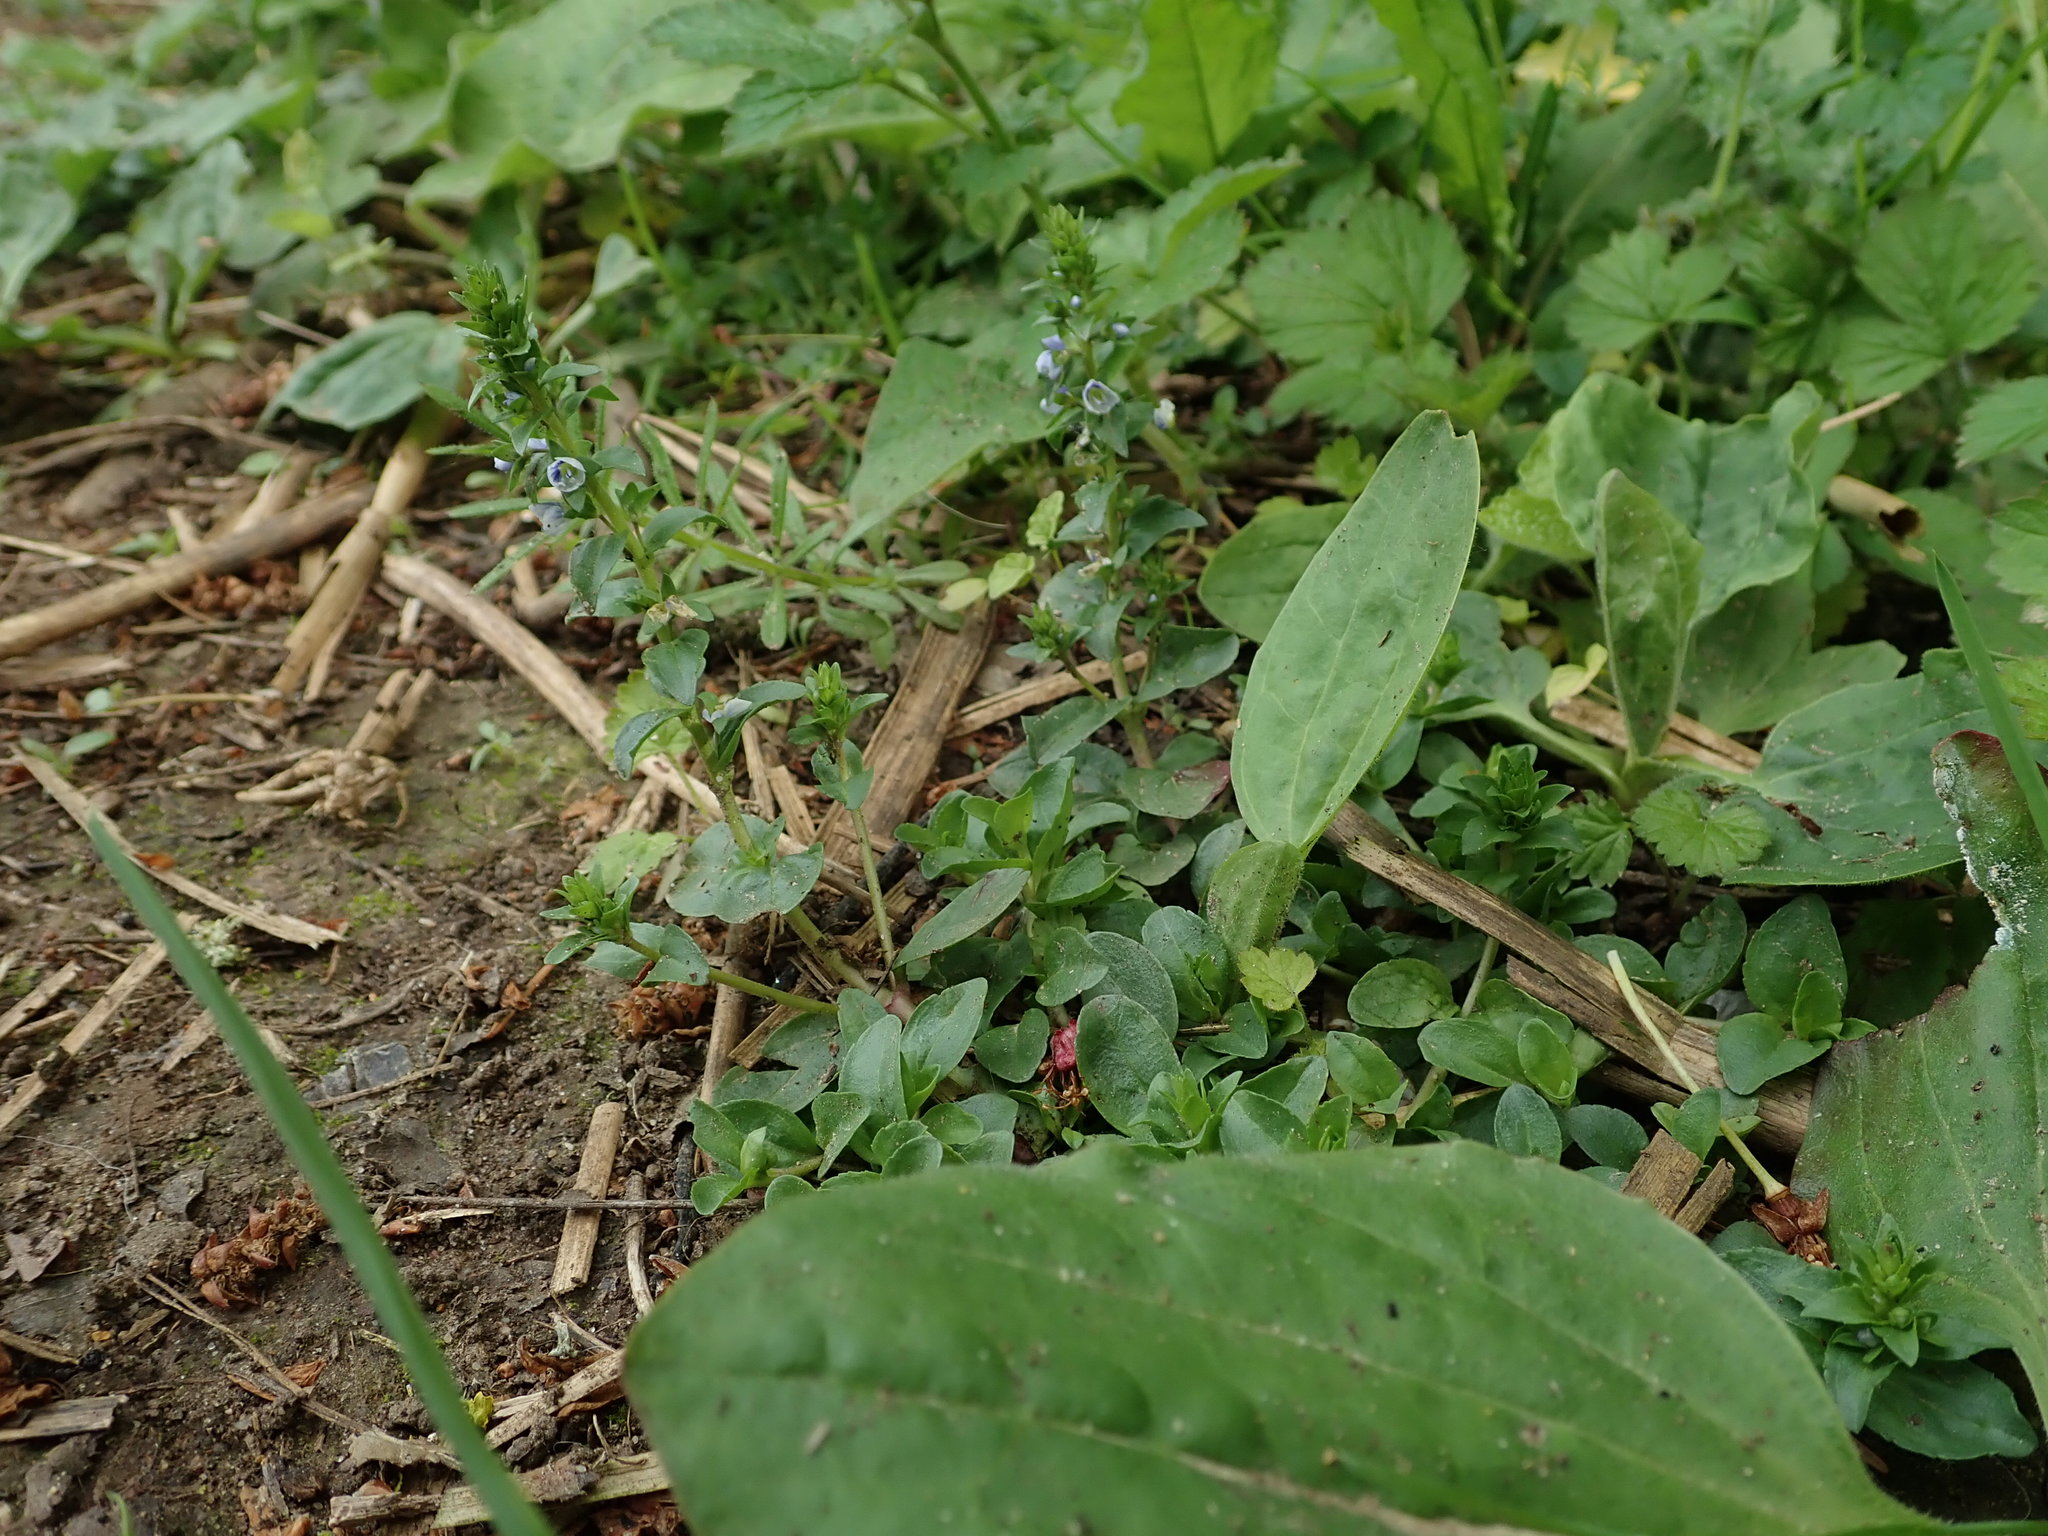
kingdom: Plantae
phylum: Tracheophyta
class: Magnoliopsida
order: Lamiales
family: Plantaginaceae
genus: Veronica
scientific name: Veronica serpyllifolia
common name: Thyme-leaved speedwell
